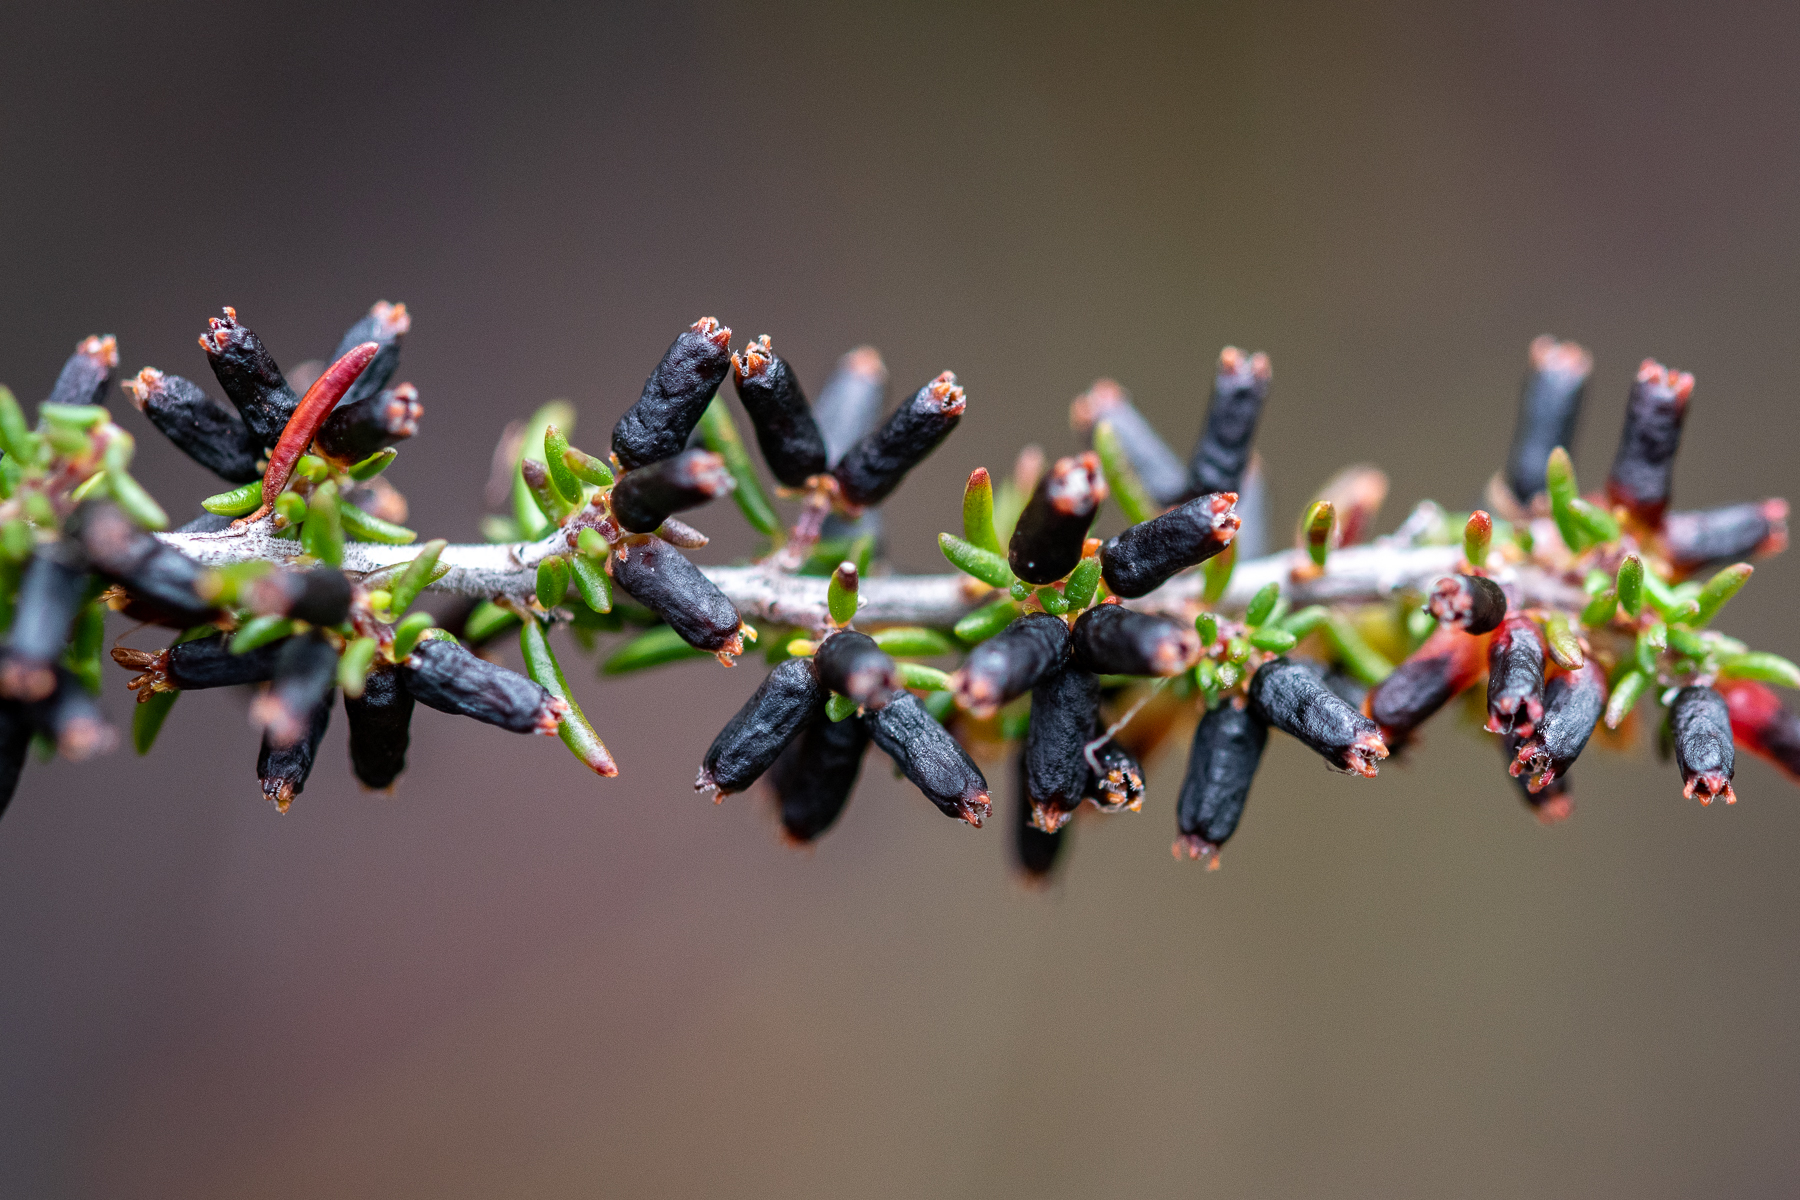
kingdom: Plantae
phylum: Tracheophyta
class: Magnoliopsida
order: Ericales
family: Ericaceae
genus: Erica
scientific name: Erica anguliger
